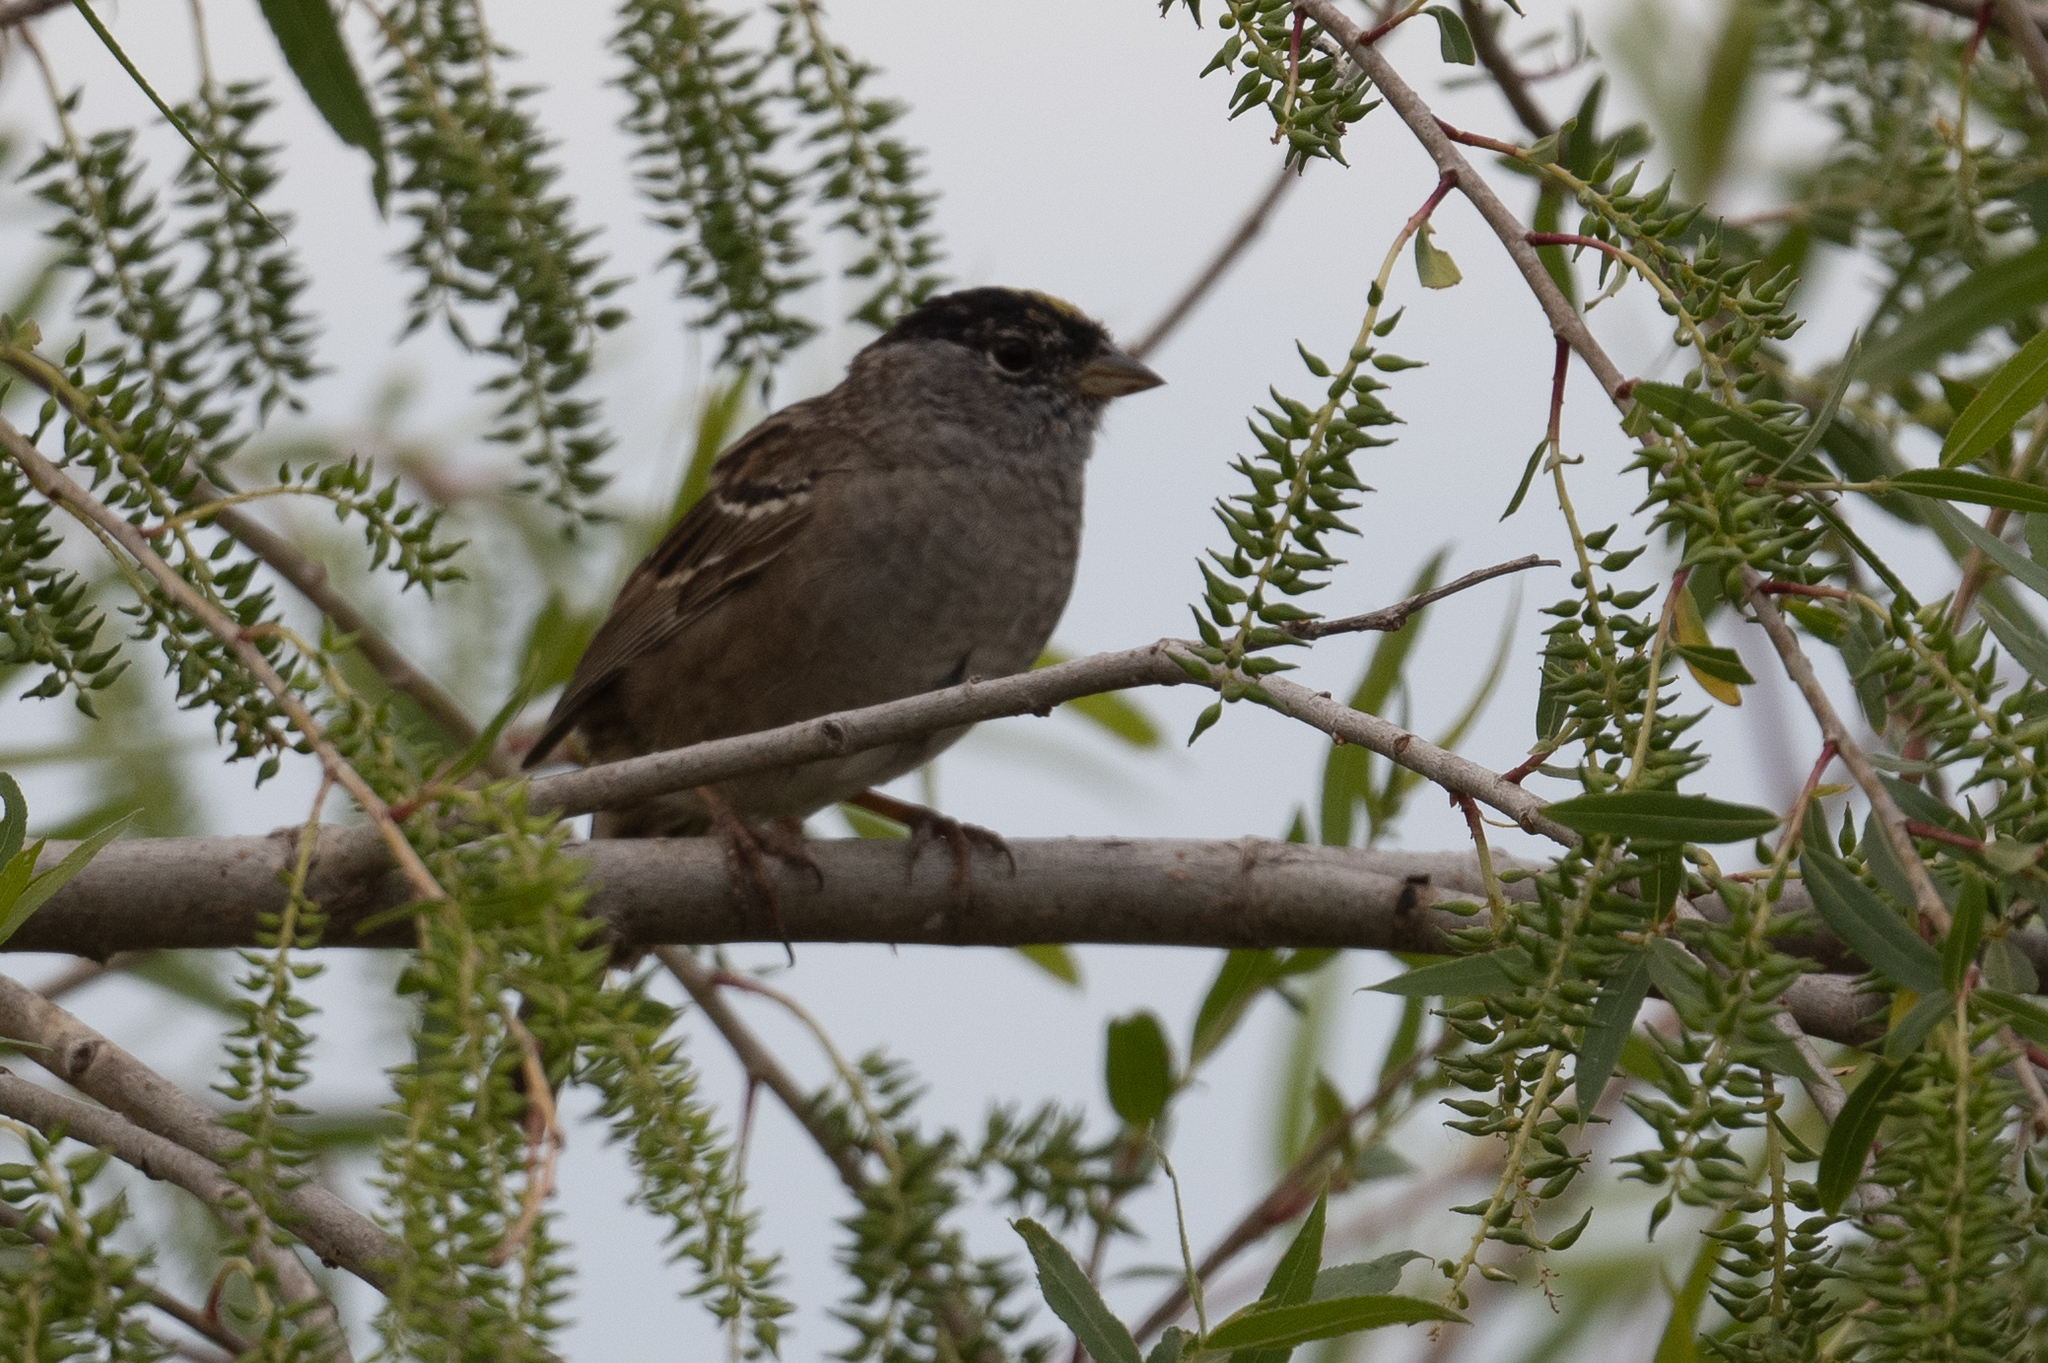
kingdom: Animalia
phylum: Chordata
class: Aves
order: Passeriformes
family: Passerellidae
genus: Zonotrichia
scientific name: Zonotrichia atricapilla
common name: Golden-crowned sparrow
